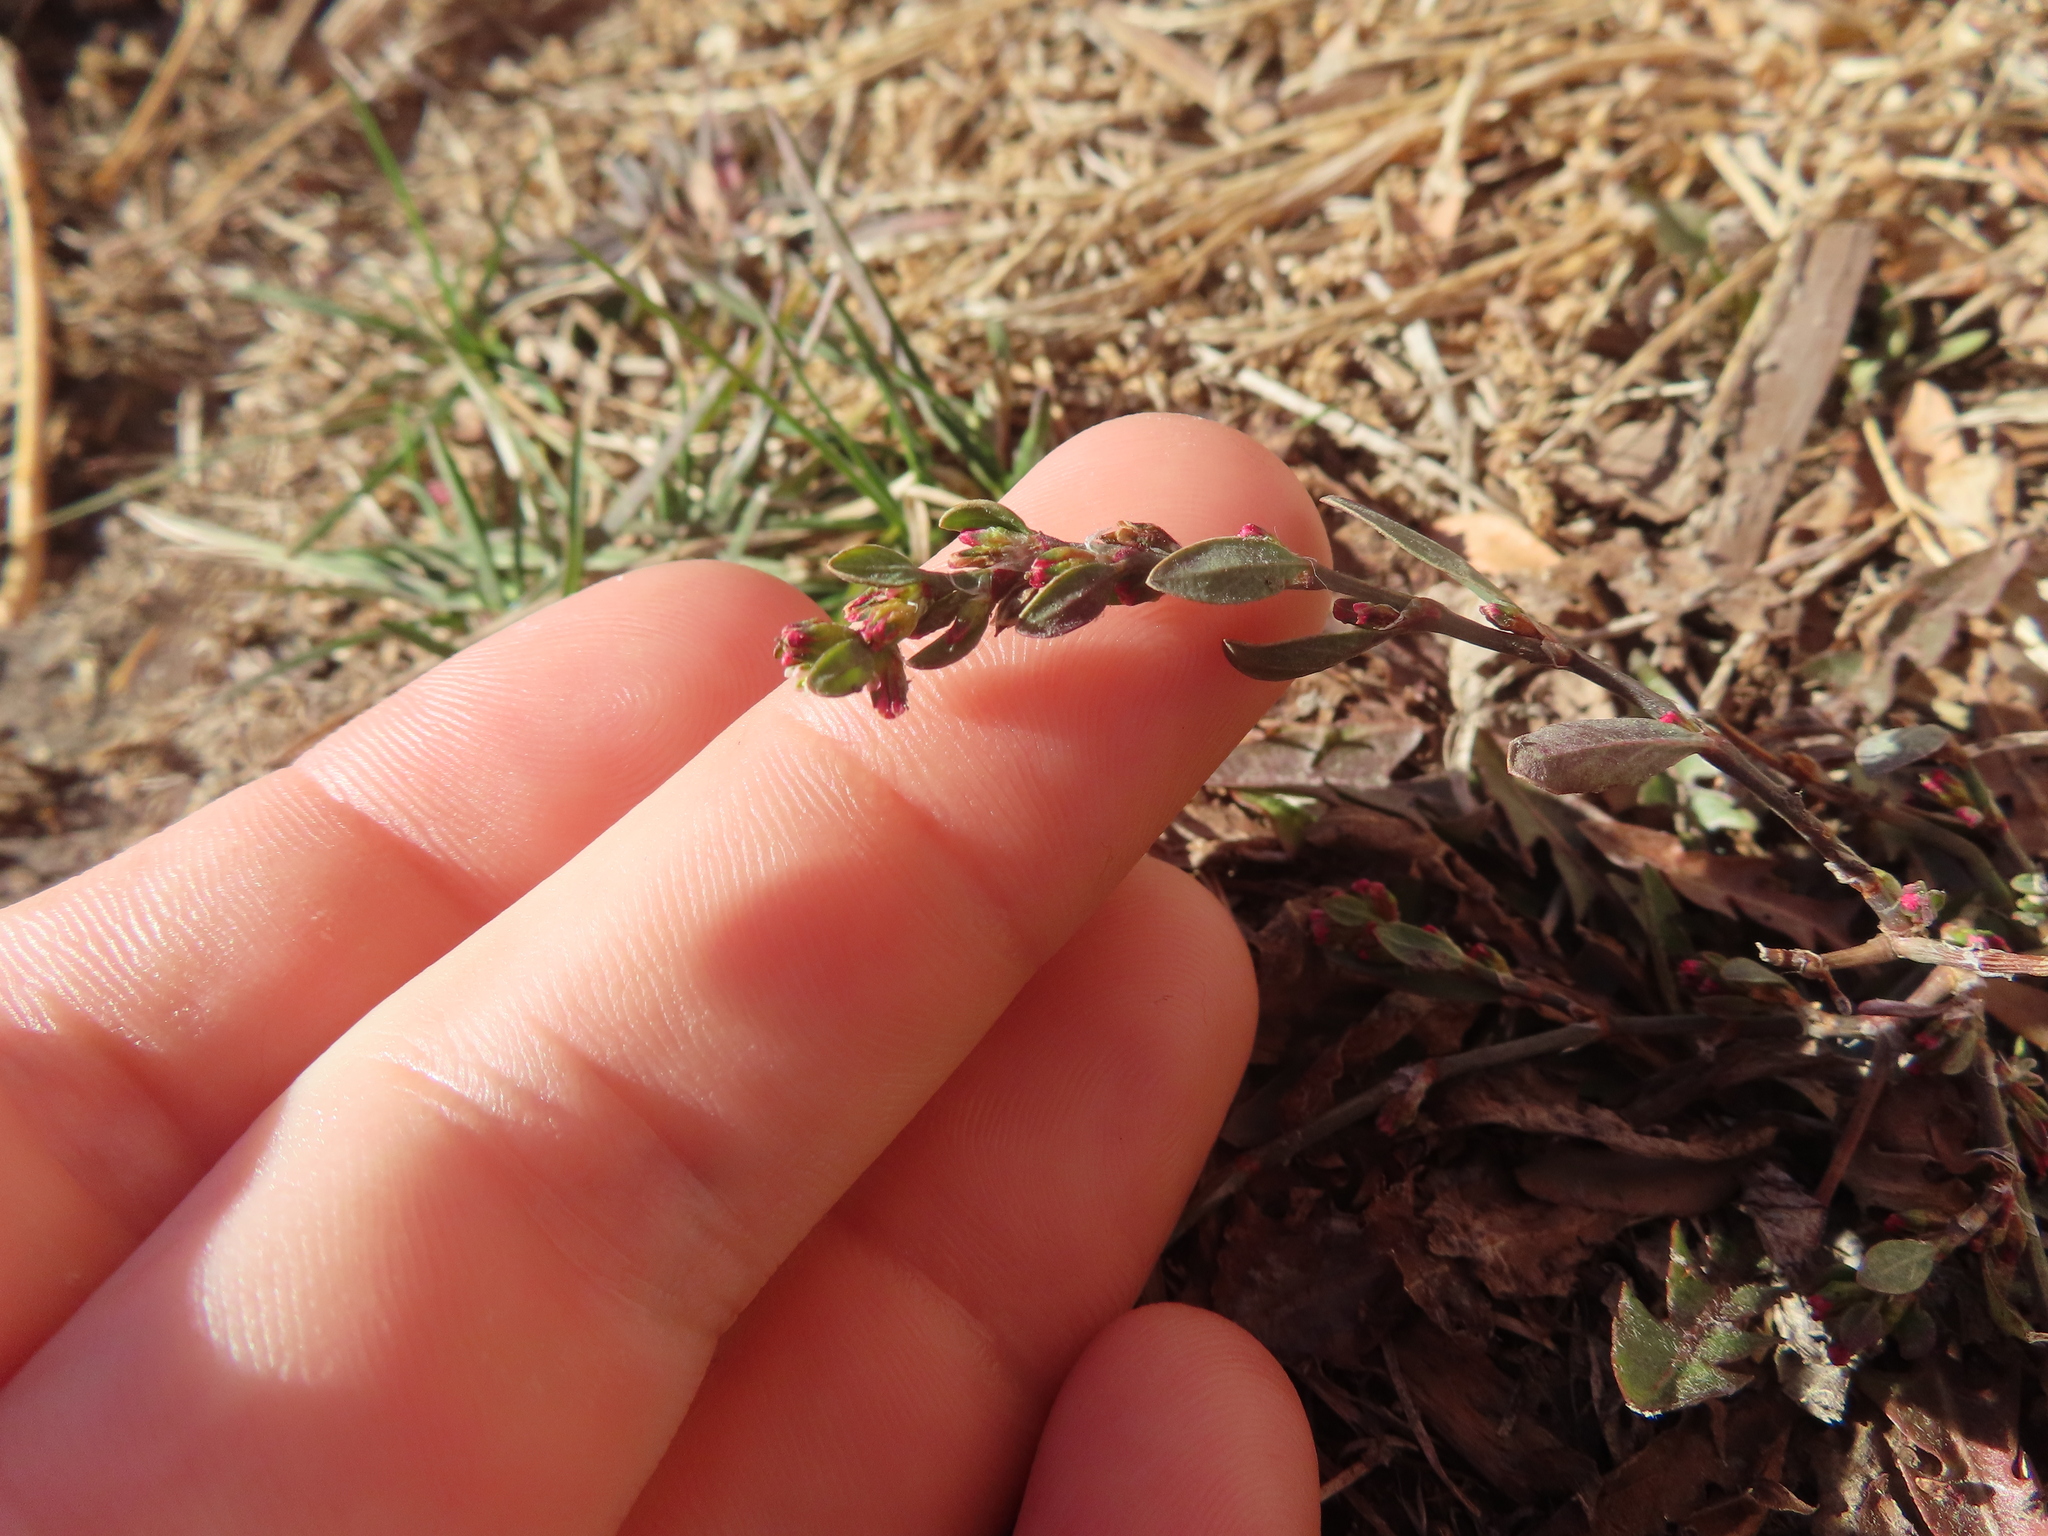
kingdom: Plantae
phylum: Tracheophyta
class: Magnoliopsida
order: Caryophyllales
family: Polygonaceae
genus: Polygonum
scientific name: Polygonum
